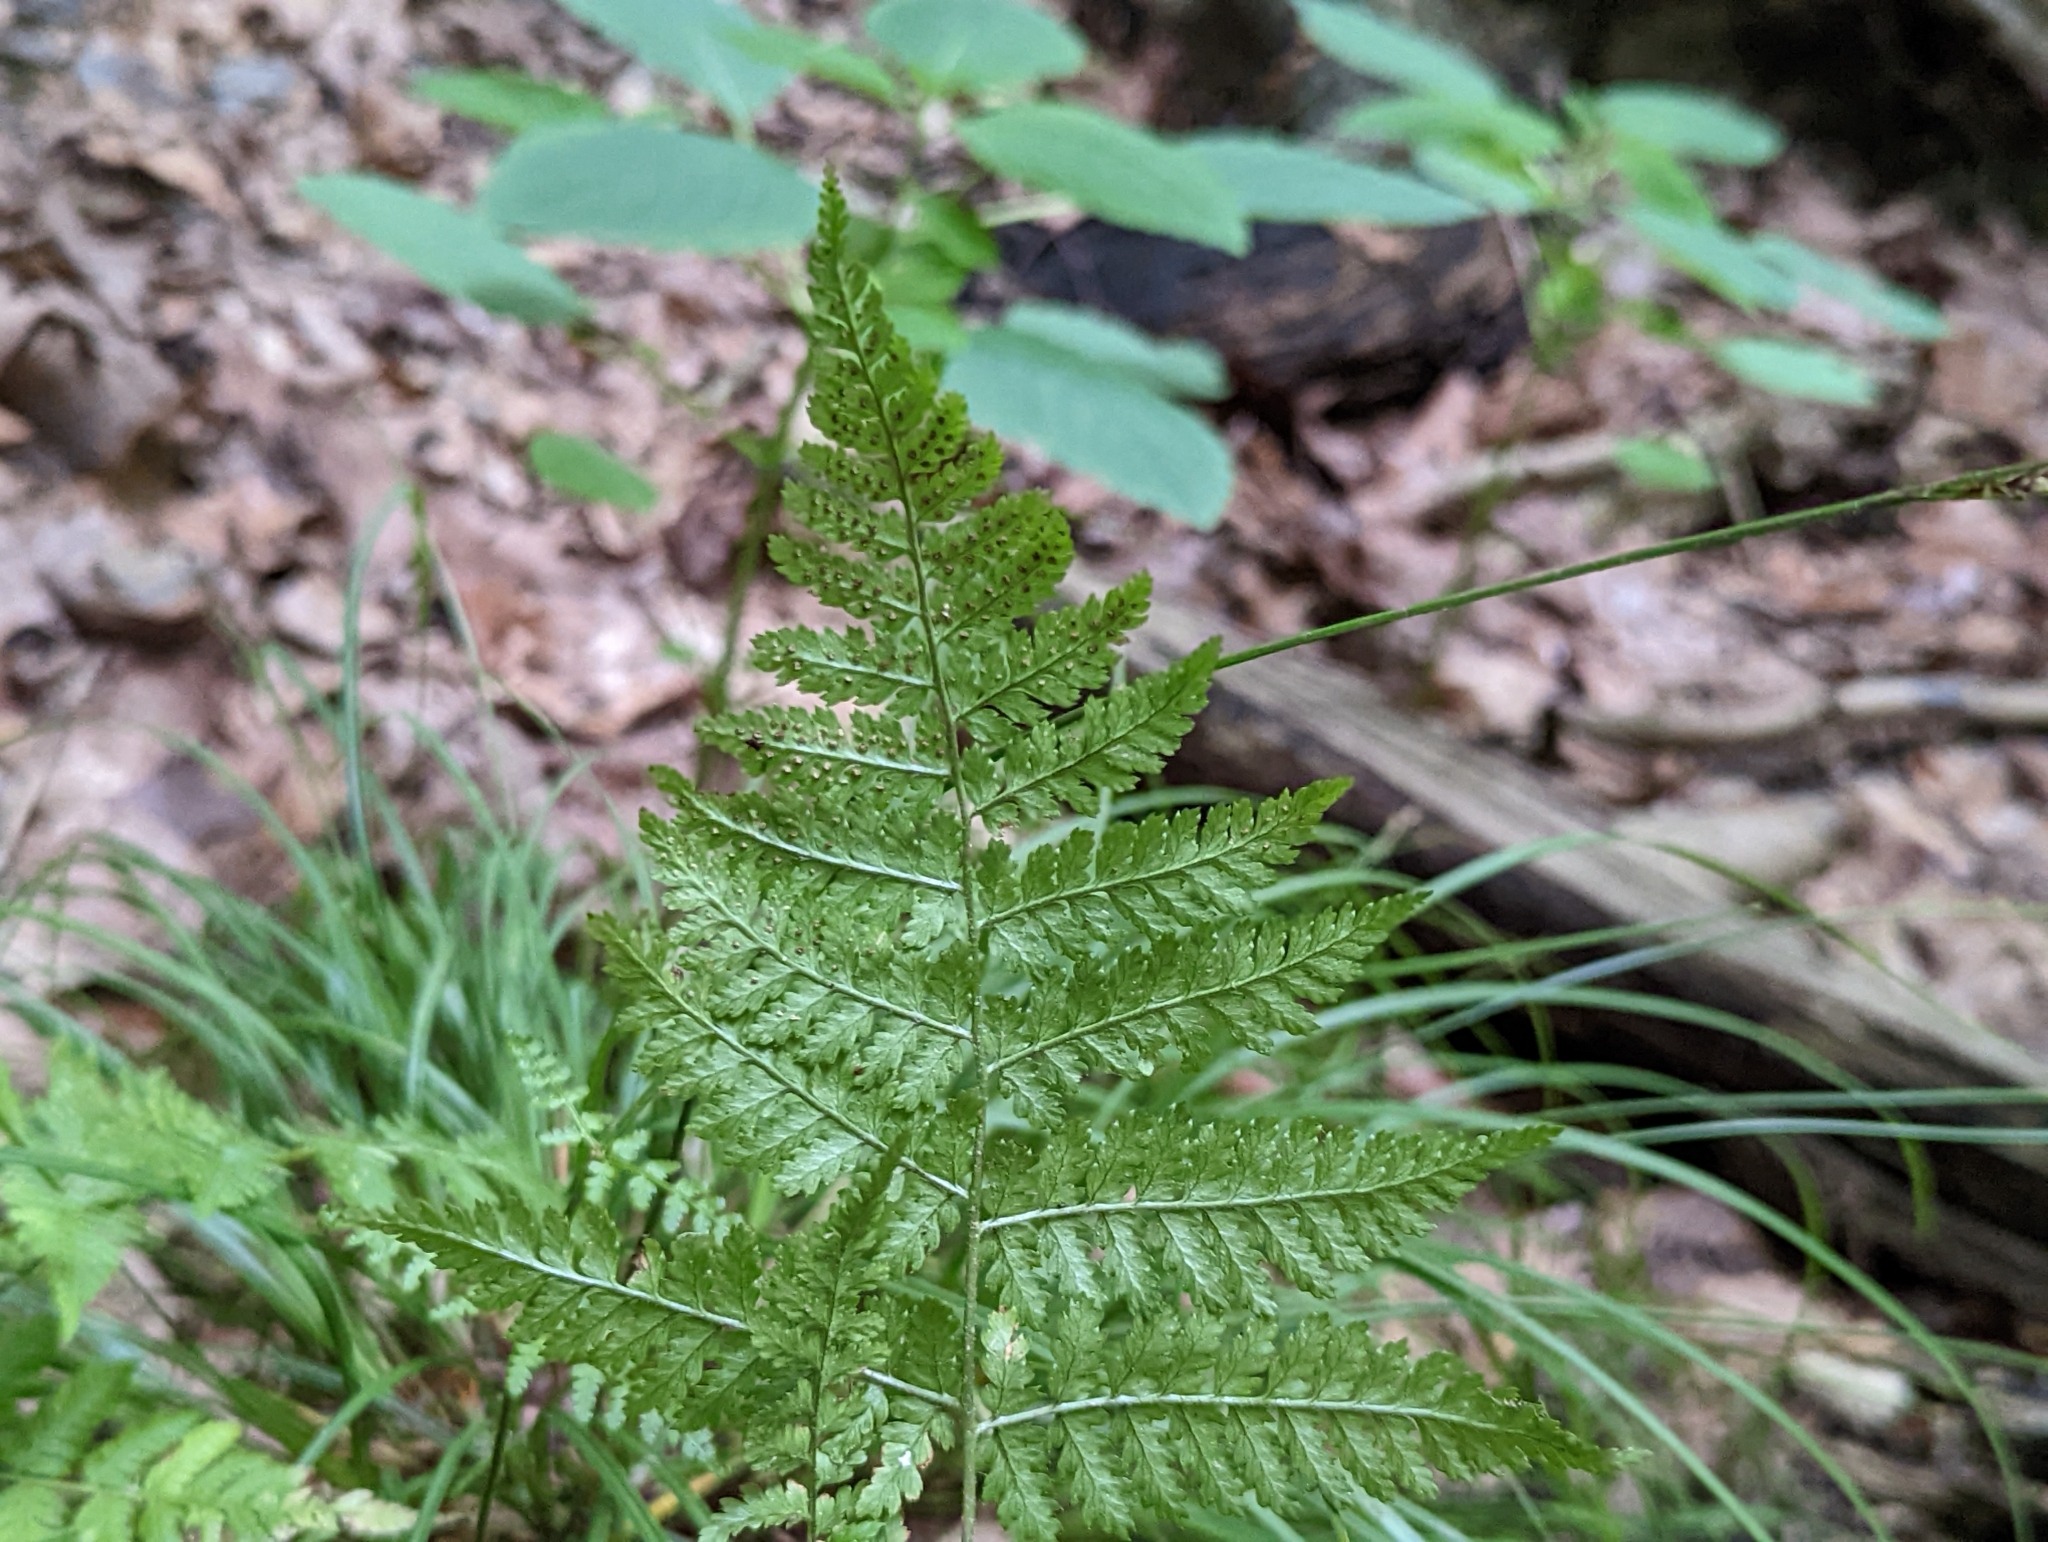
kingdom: Plantae
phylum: Tracheophyta
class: Polypodiopsida
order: Polypodiales
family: Dryopteridaceae
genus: Dryopteris
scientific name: Dryopteris intermedia
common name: Evergreen wood fern
